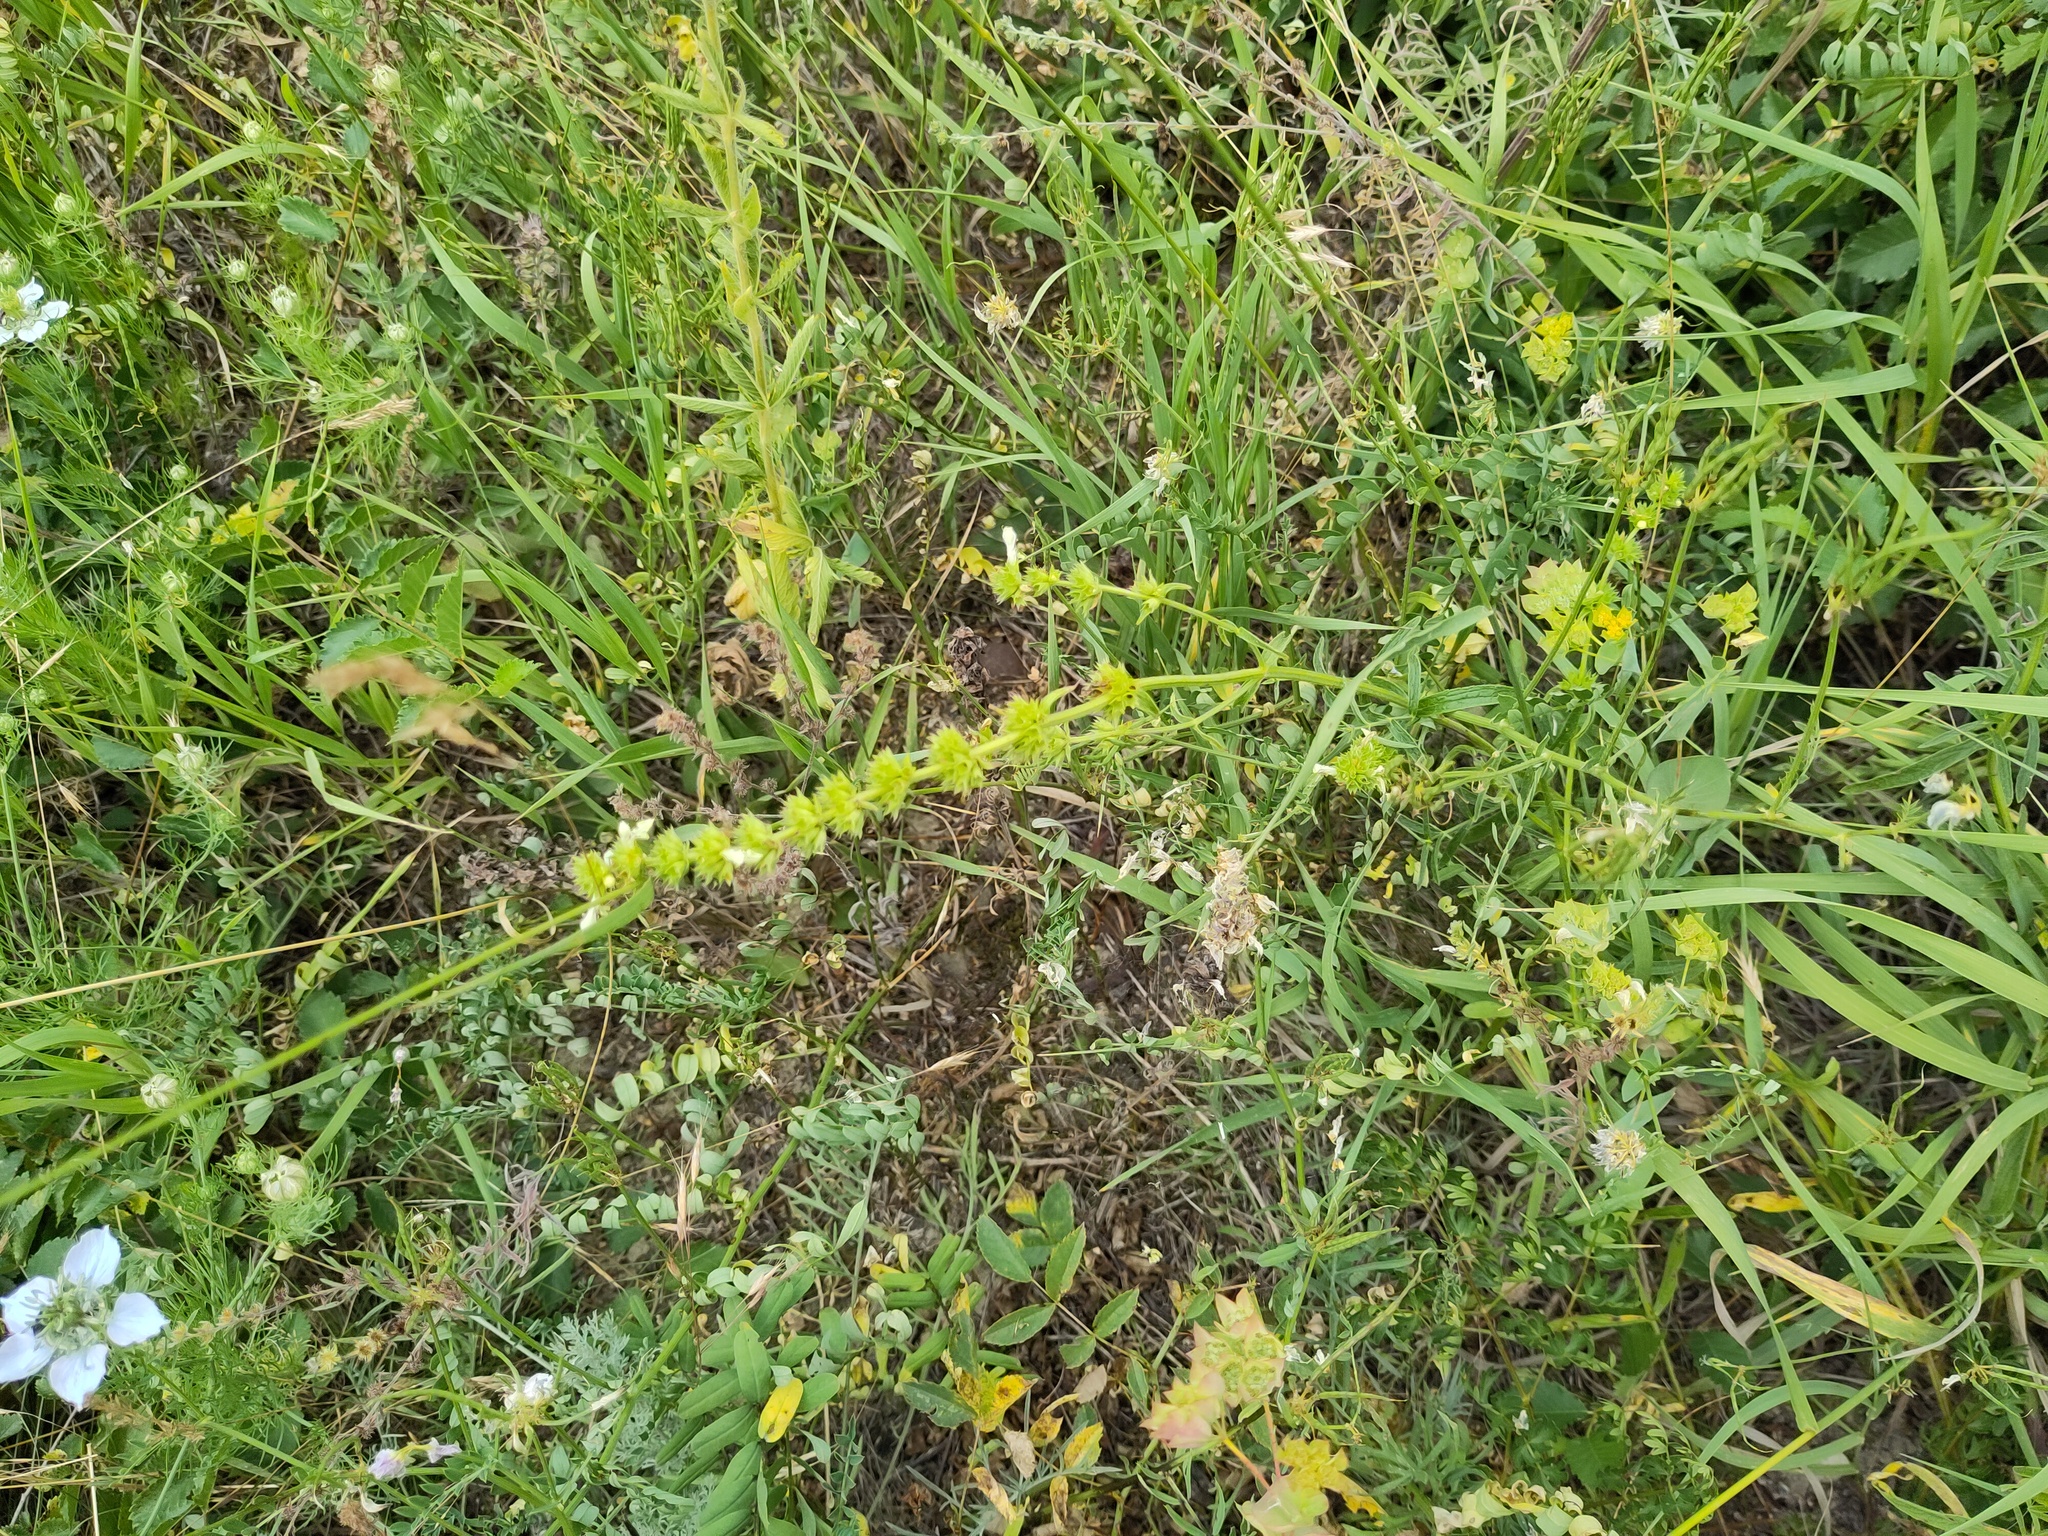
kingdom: Plantae
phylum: Tracheophyta
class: Magnoliopsida
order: Lamiales
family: Lamiaceae
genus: Stachys
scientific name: Stachys recta
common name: Perennial yellow-woundwort
